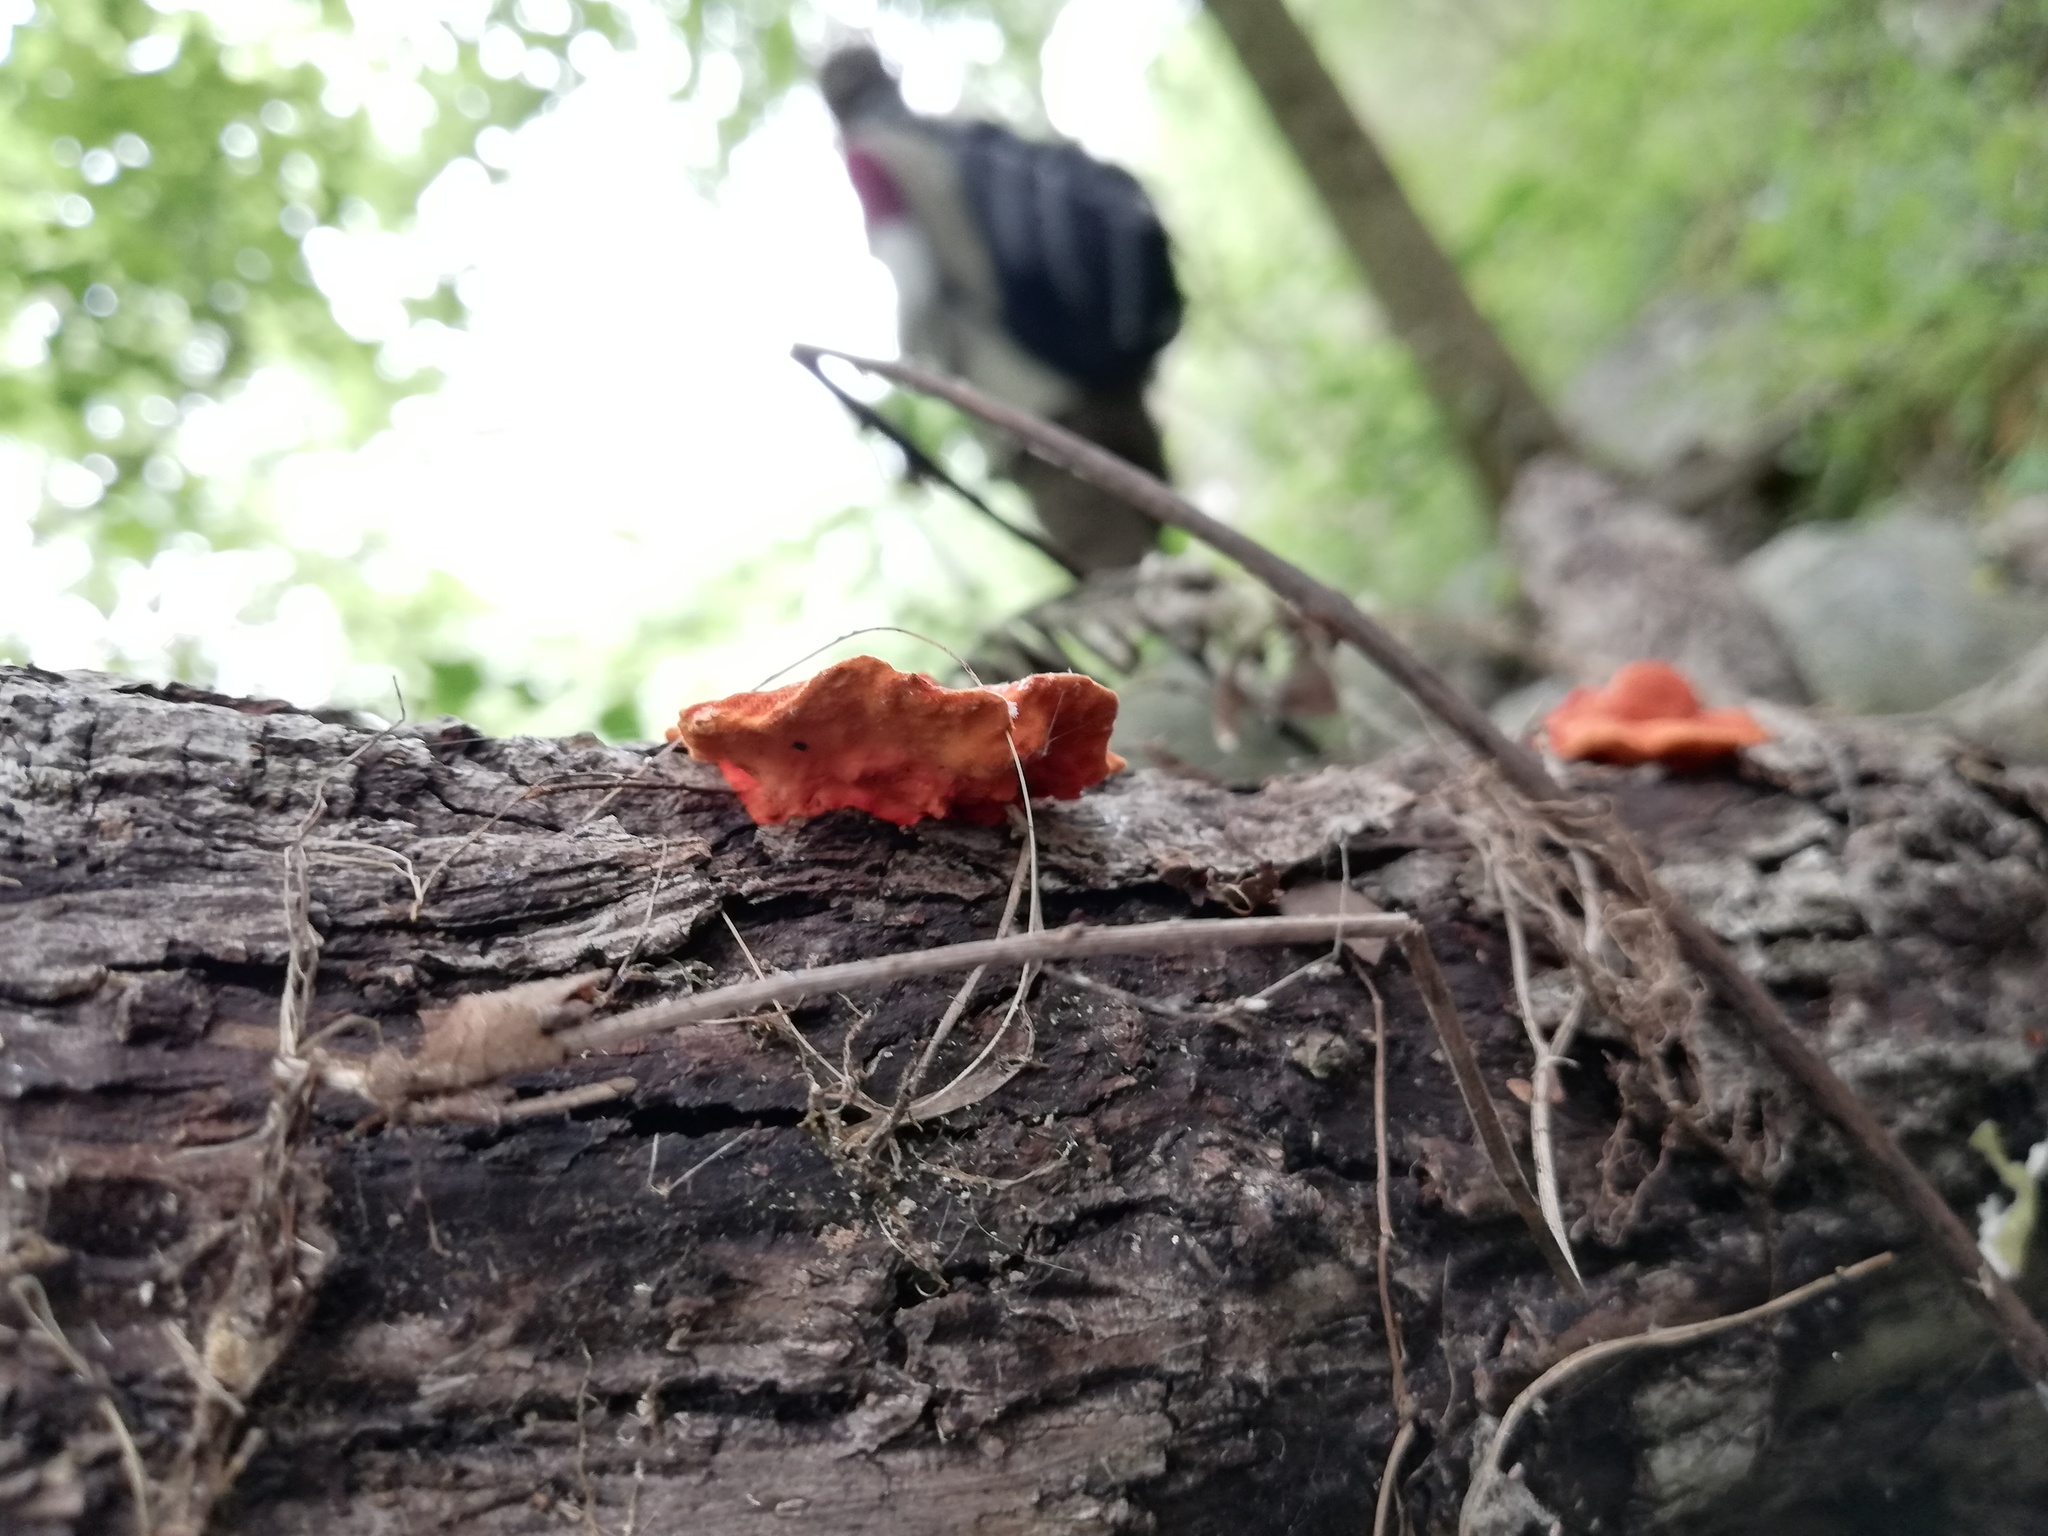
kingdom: Fungi
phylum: Basidiomycota
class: Agaricomycetes
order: Polyporales
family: Polyporaceae
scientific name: Polyporaceae
